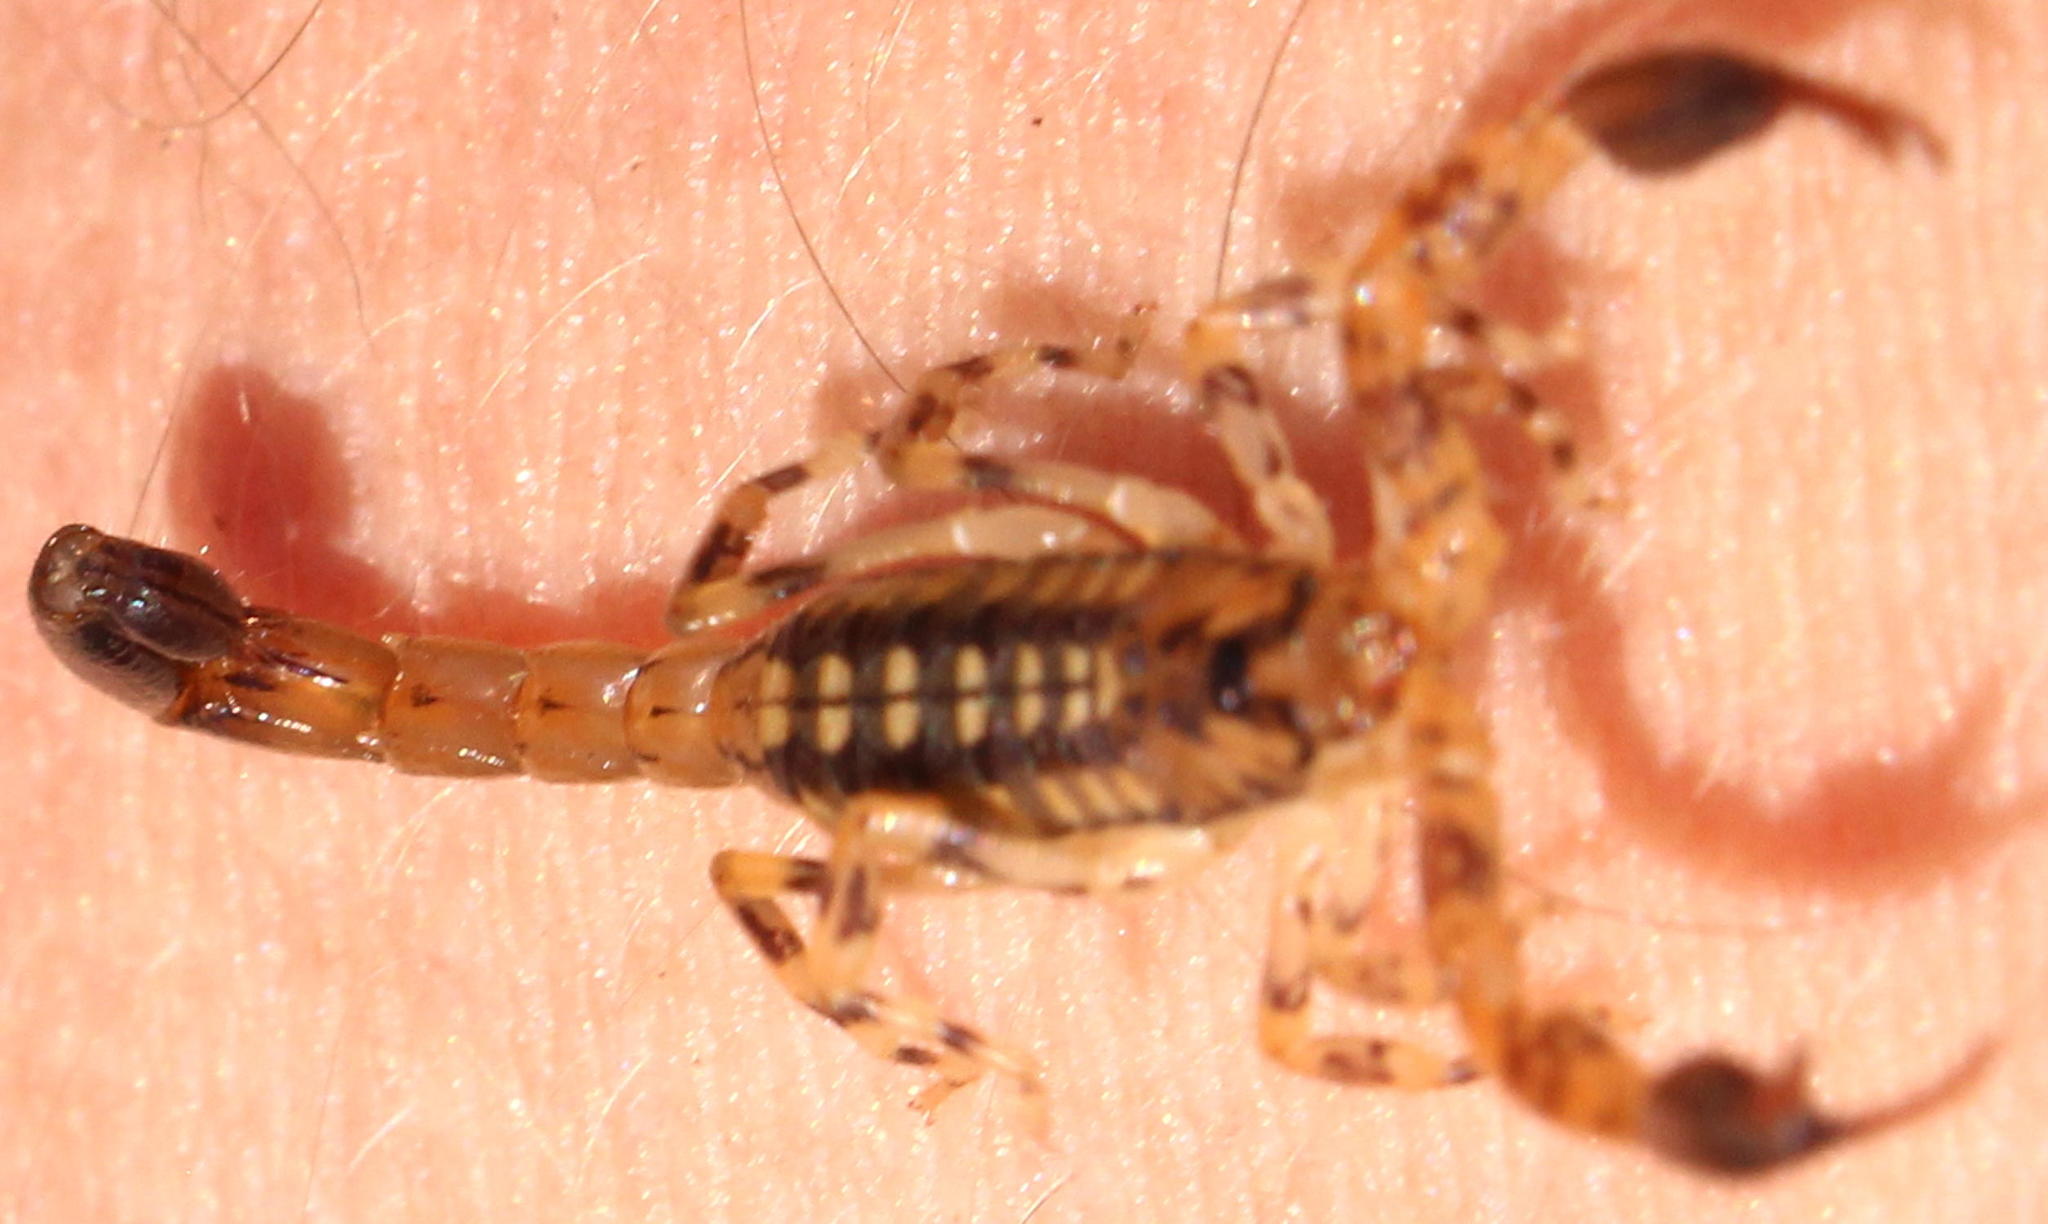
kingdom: Animalia
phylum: Arthropoda
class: Arachnida
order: Scorpiones
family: Buthidae
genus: Uroplectes
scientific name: Uroplectes formosus
